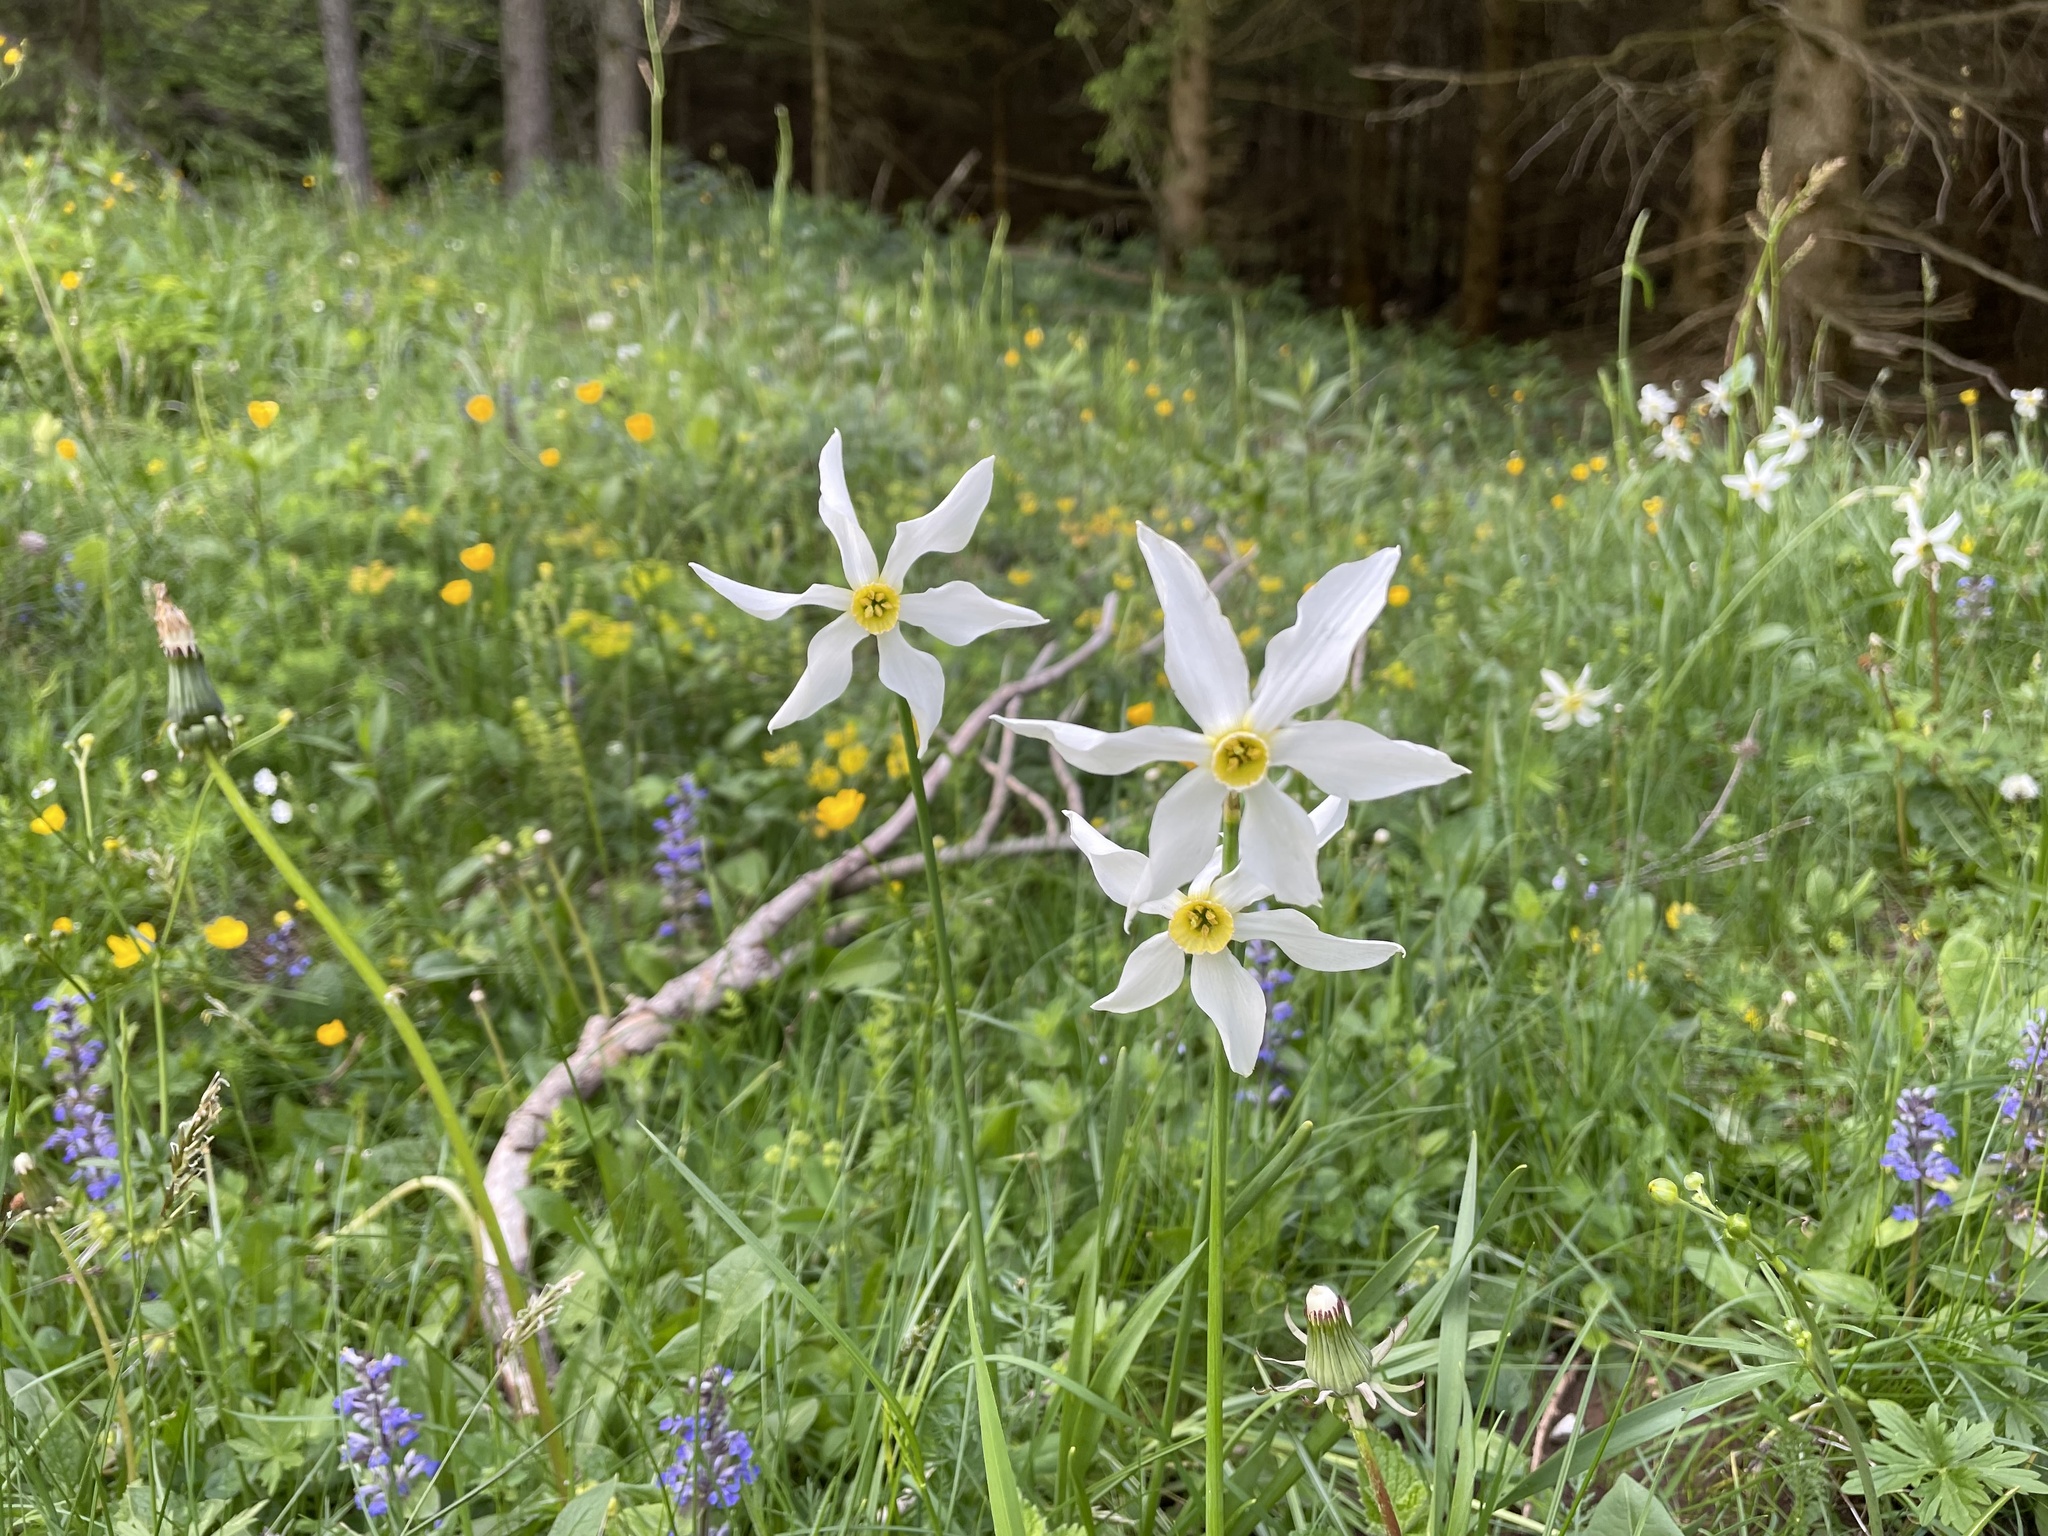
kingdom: Plantae
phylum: Tracheophyta
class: Liliopsida
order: Asparagales
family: Amaryllidaceae
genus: Narcissus
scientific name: Narcissus poeticus
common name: Pheasant's-eye daffodil
